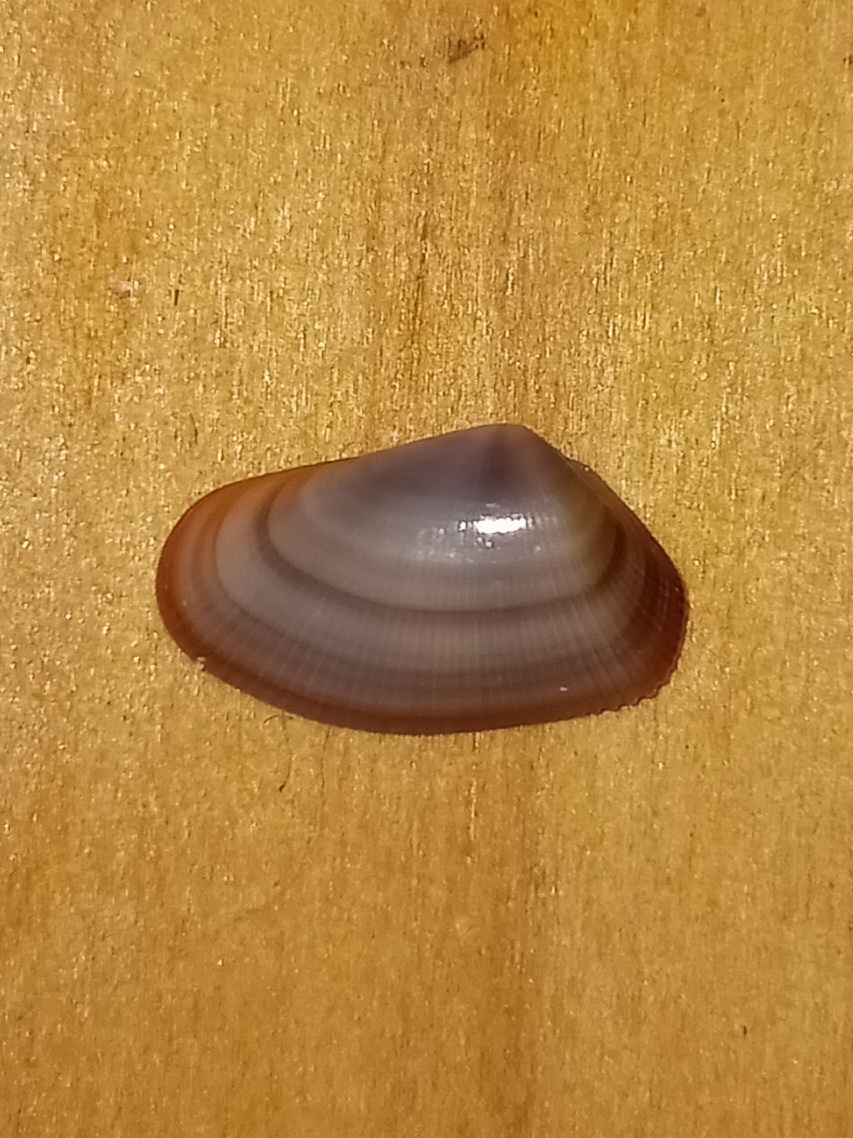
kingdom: Animalia
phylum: Mollusca
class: Bivalvia
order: Cardiida
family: Donacidae
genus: Donax
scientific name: Donax variabilis
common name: Butterfly shell
